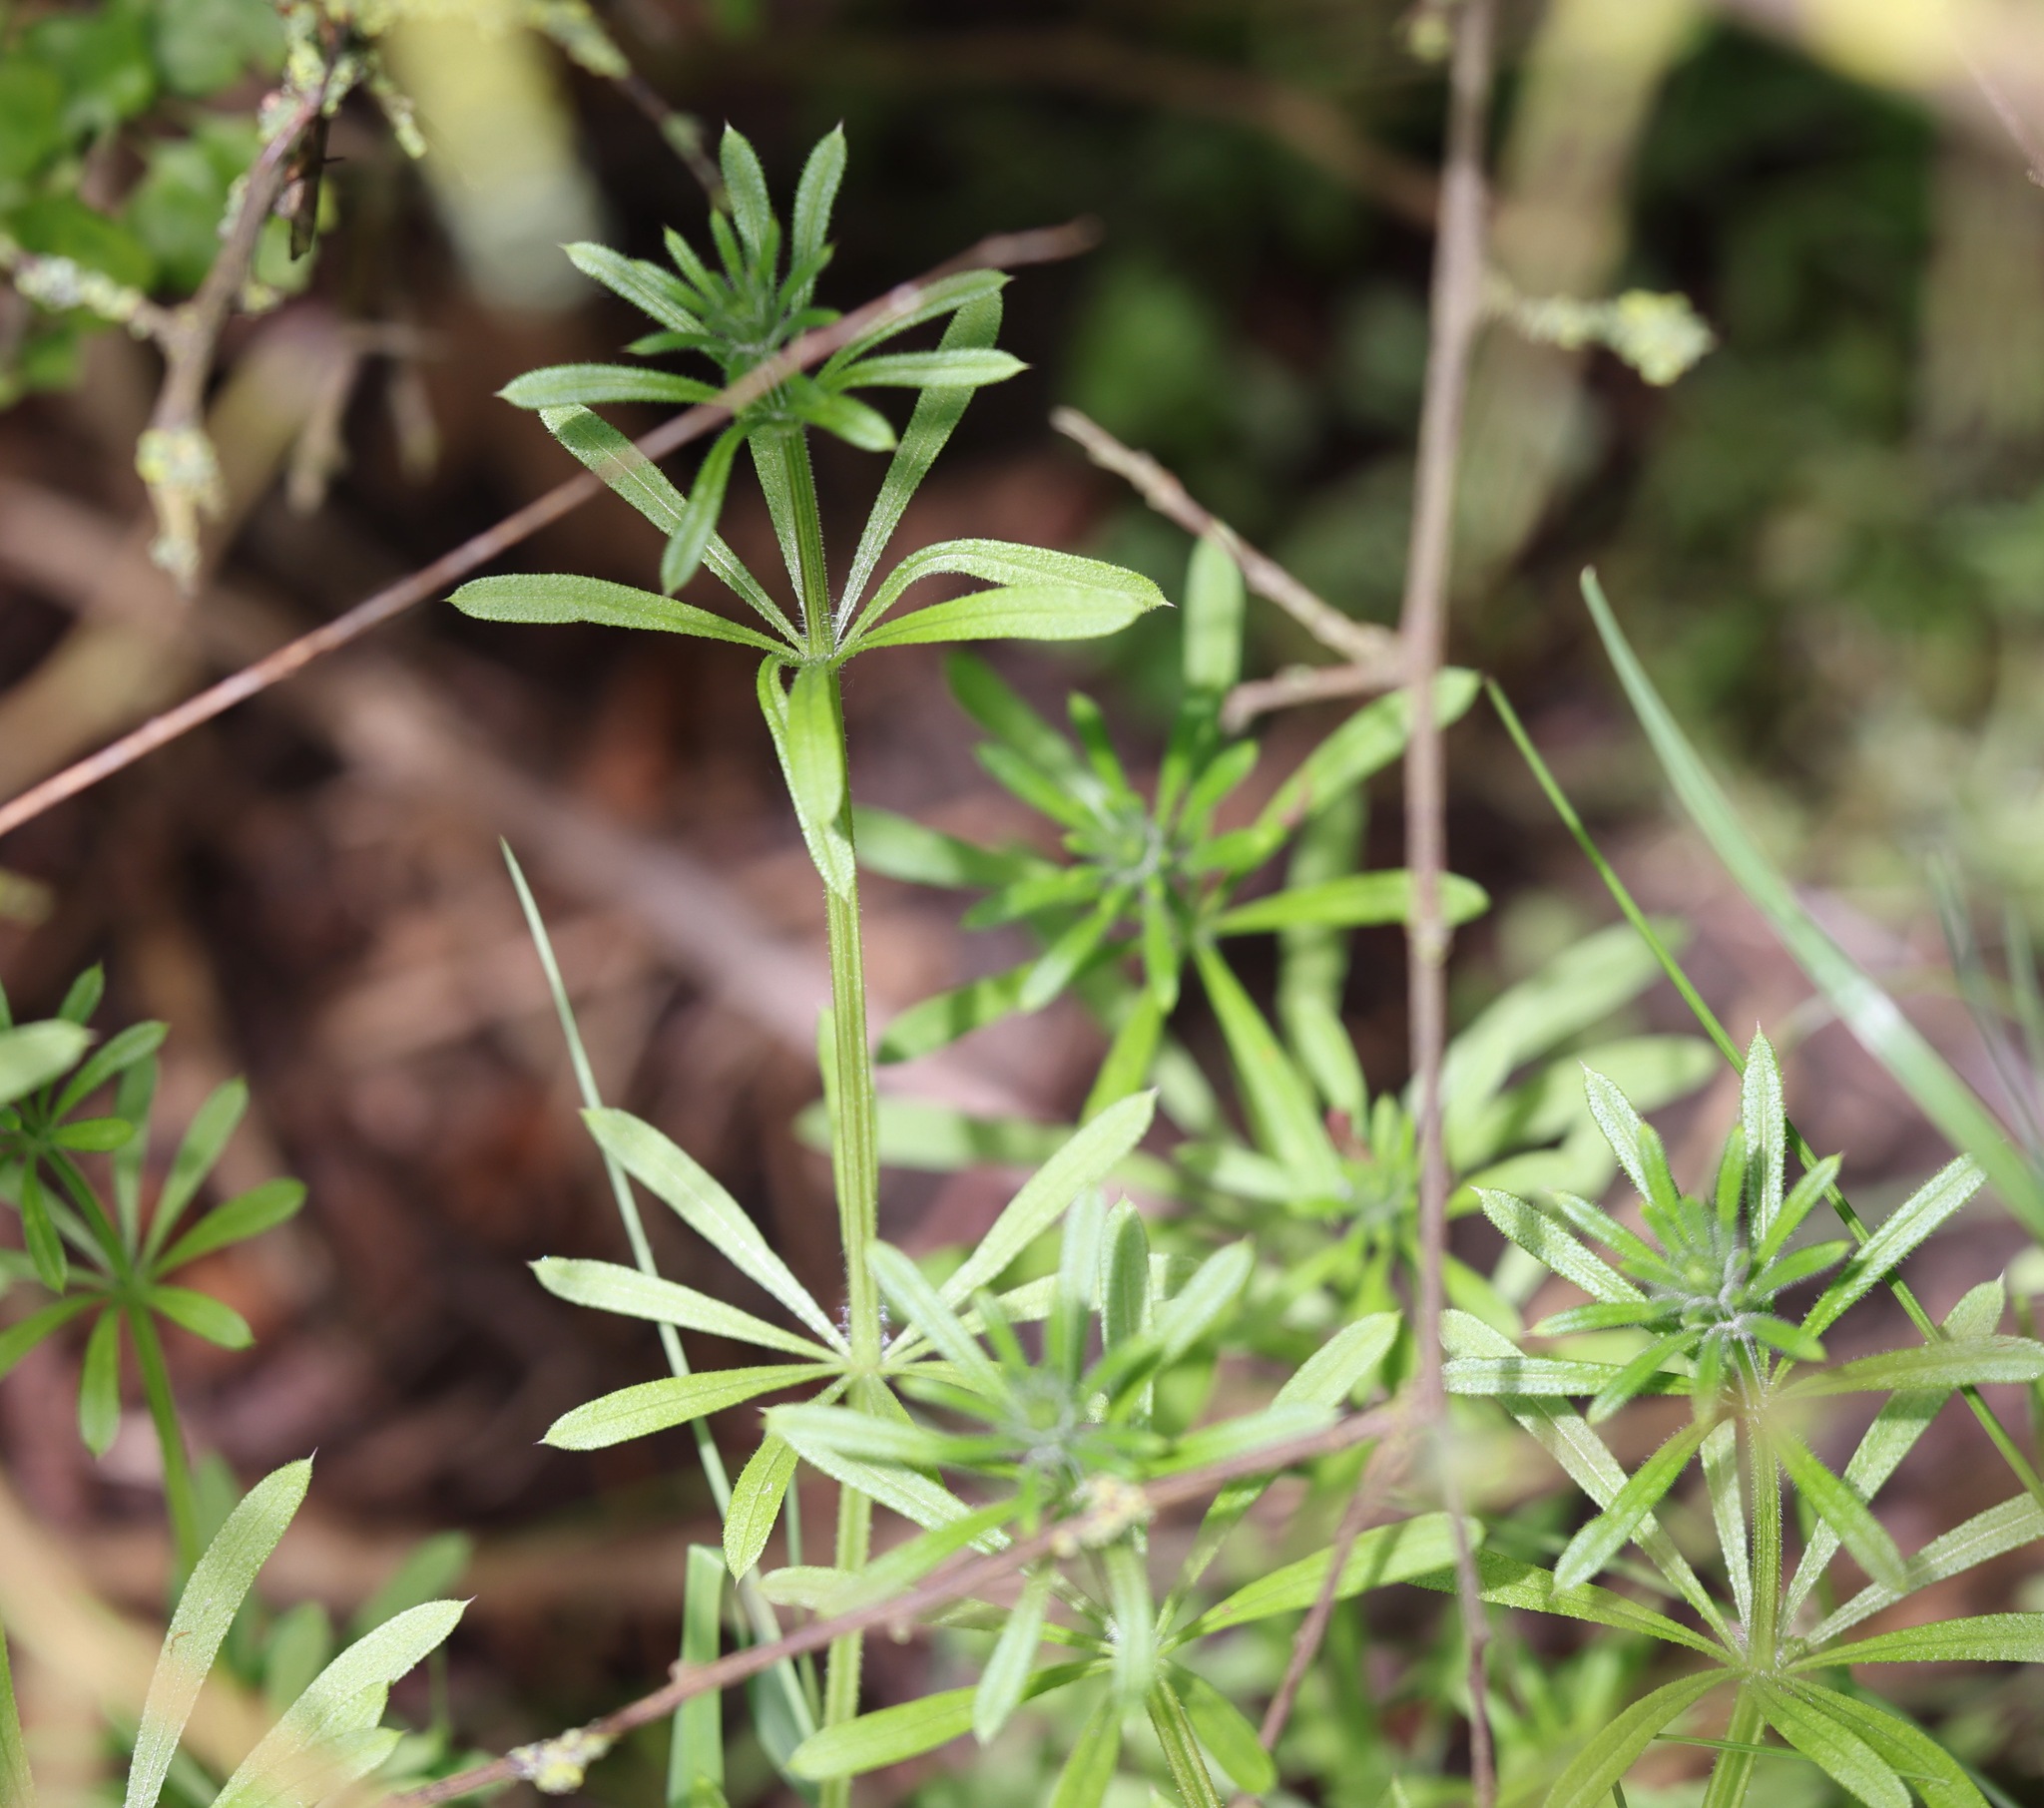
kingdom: Plantae
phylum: Tracheophyta
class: Magnoliopsida
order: Gentianales
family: Rubiaceae
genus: Galium
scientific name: Galium aparine
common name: Cleavers
